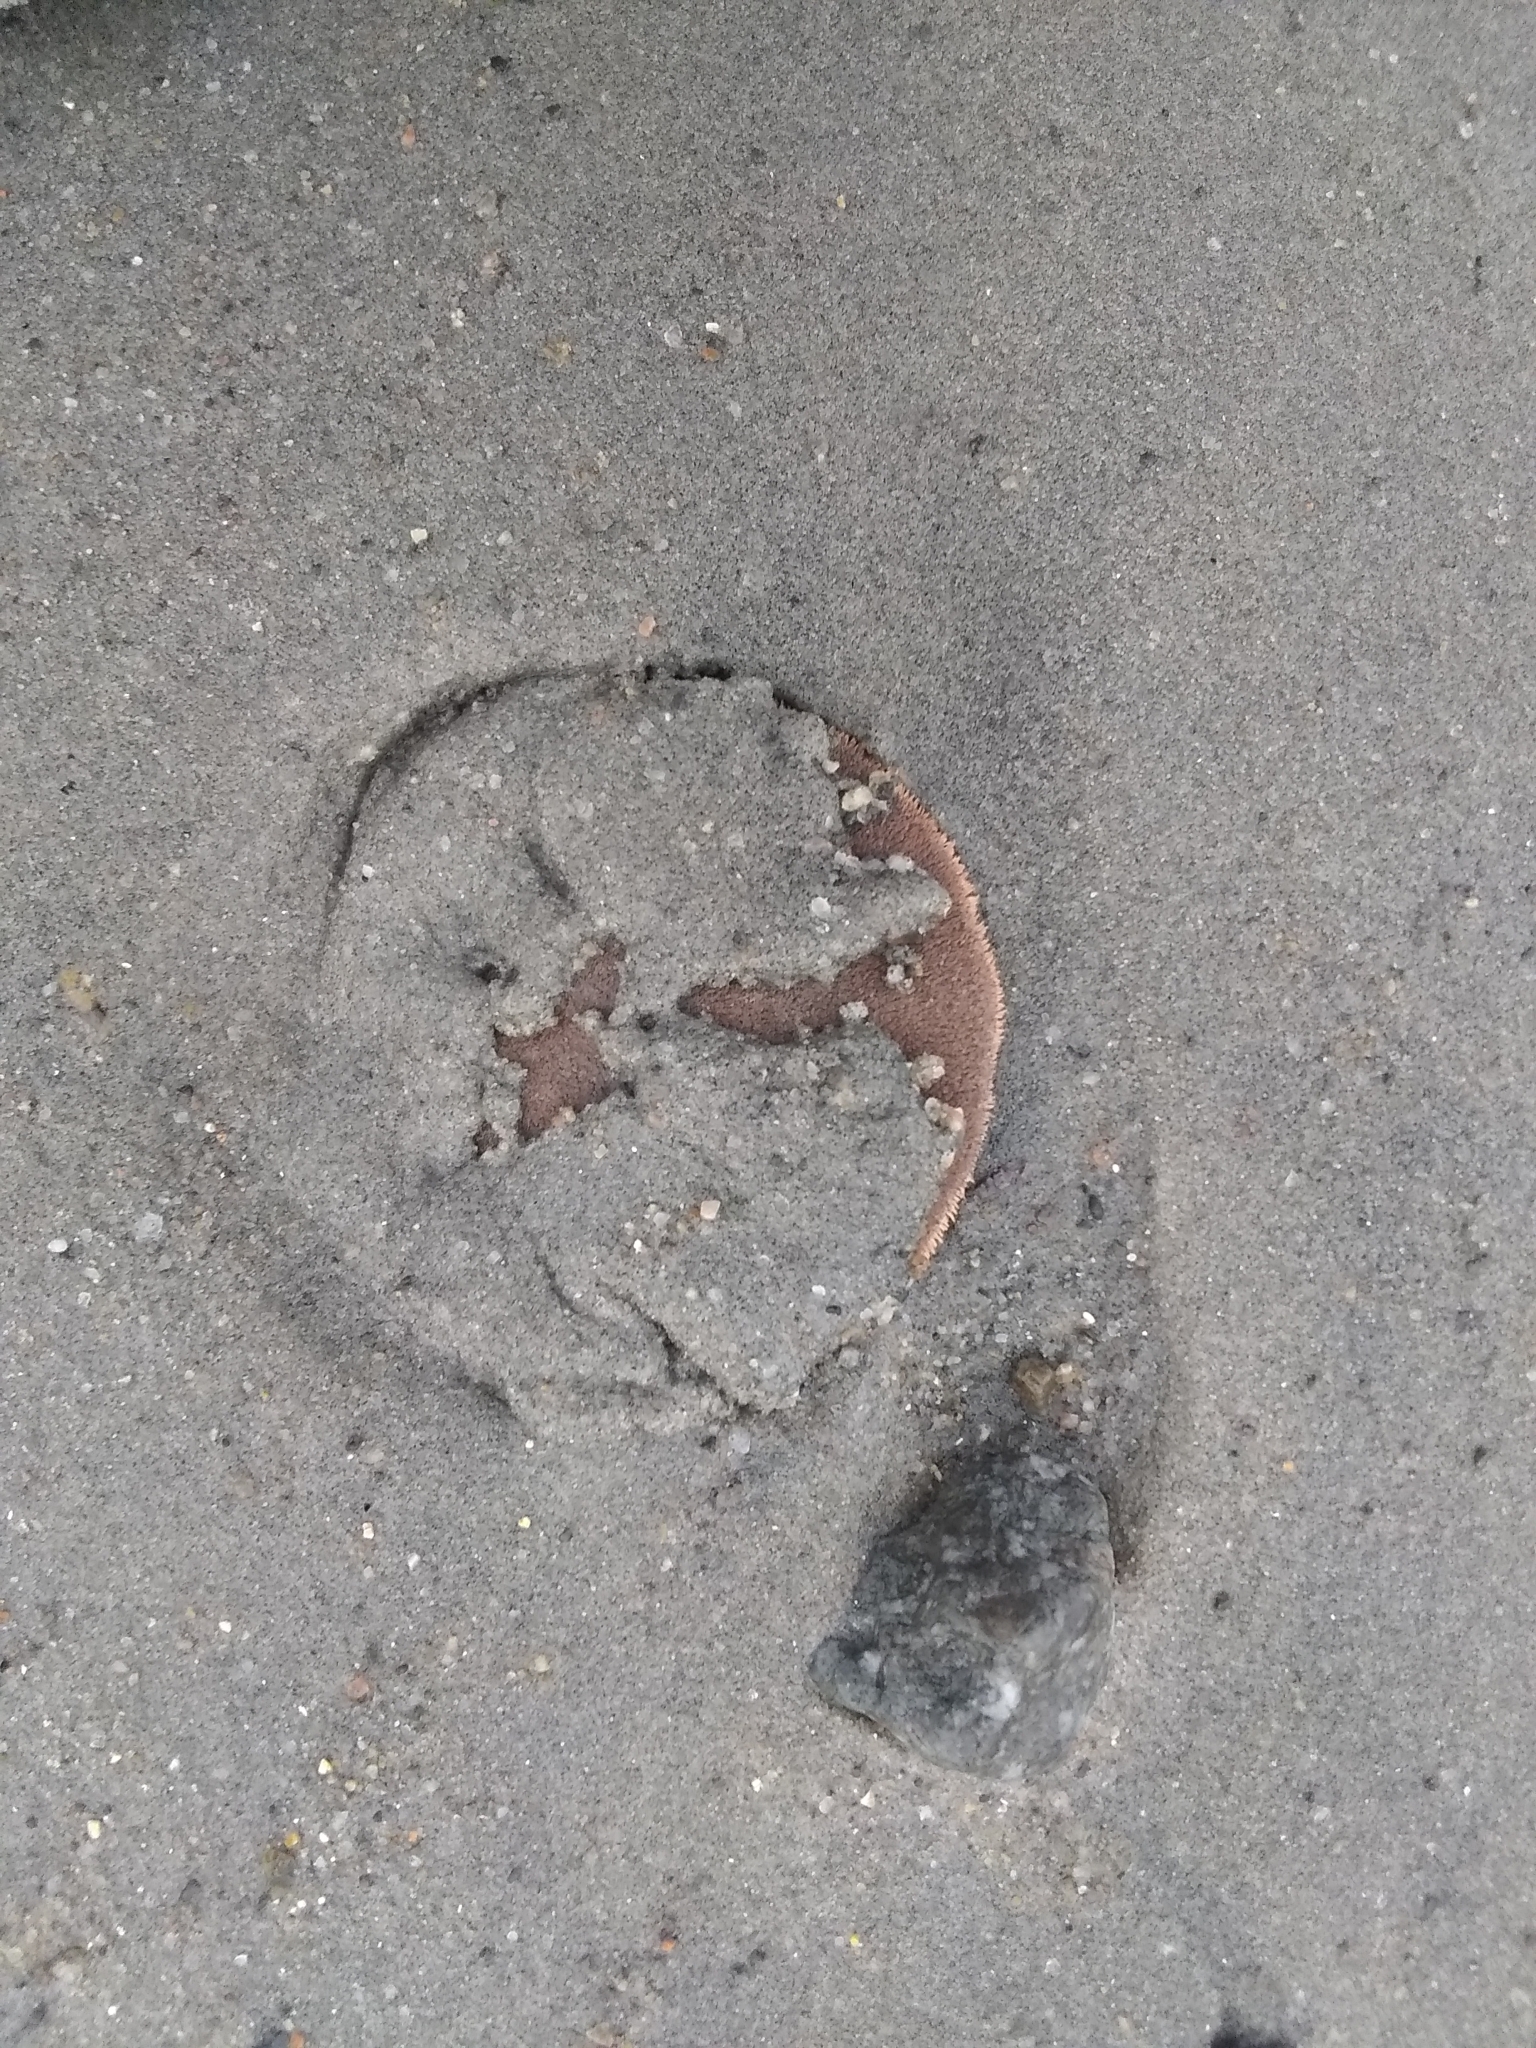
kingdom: Animalia
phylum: Echinodermata
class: Echinoidea
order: Echinolampadacea
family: Echinarachniidae
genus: Echinarachnius
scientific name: Echinarachnius parma
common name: Common sand dollar
